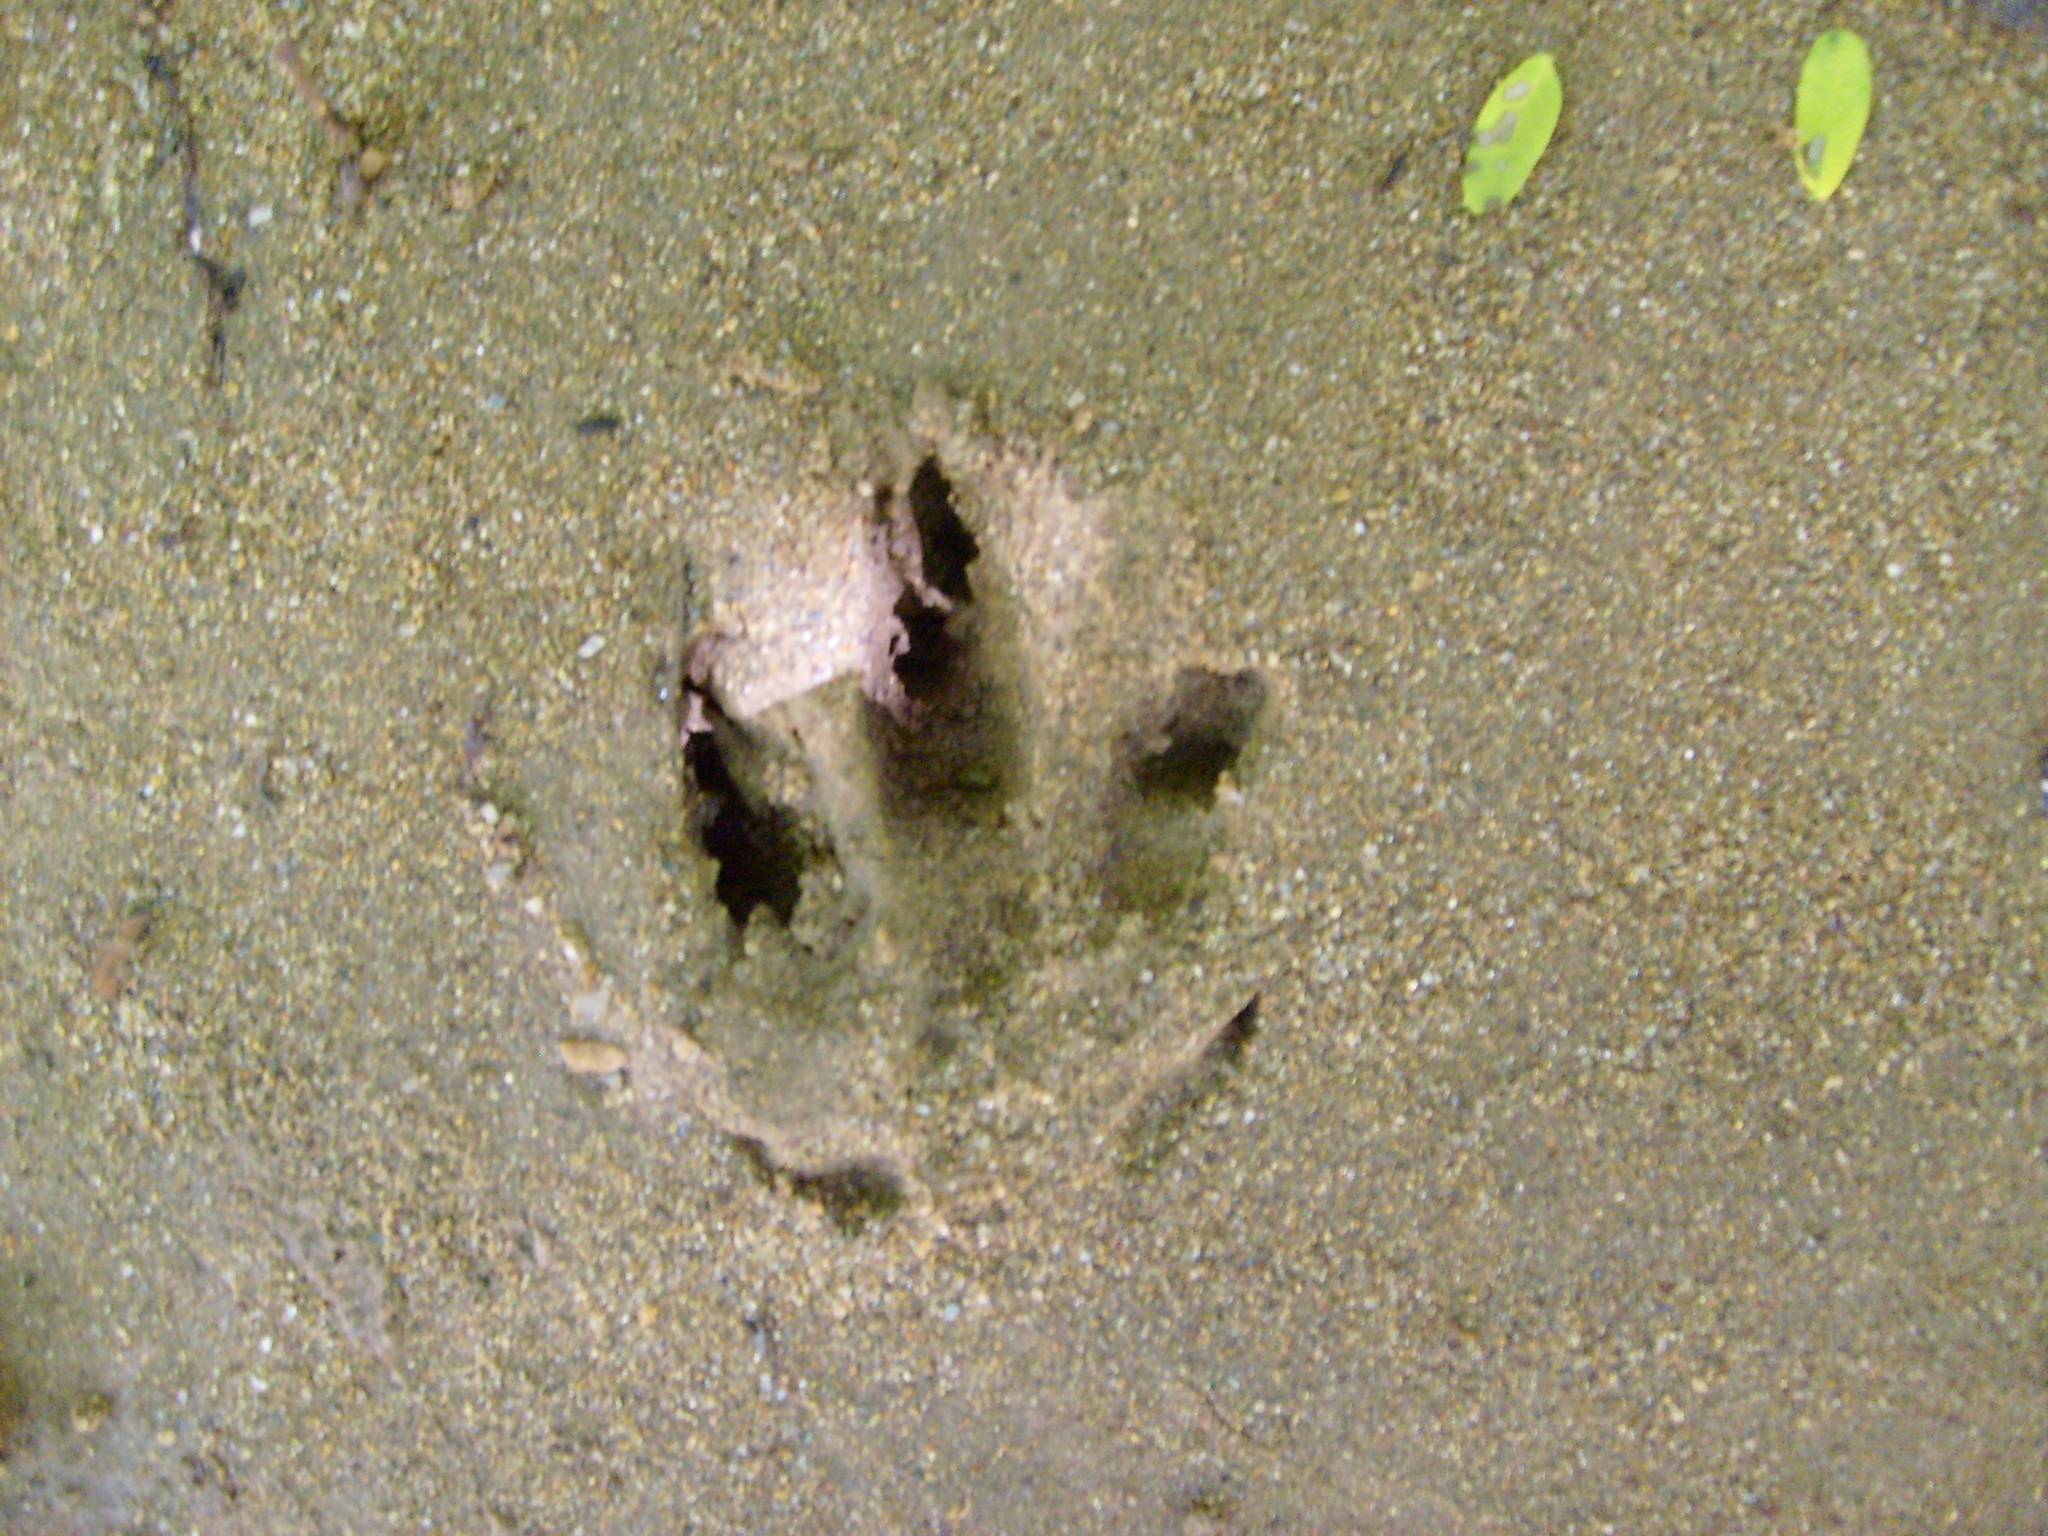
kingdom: Animalia
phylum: Chordata
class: Mammalia
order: Cingulata
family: Dasypodidae
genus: Dasypus
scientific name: Dasypus novemcinctus
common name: Nine-banded armadillo
